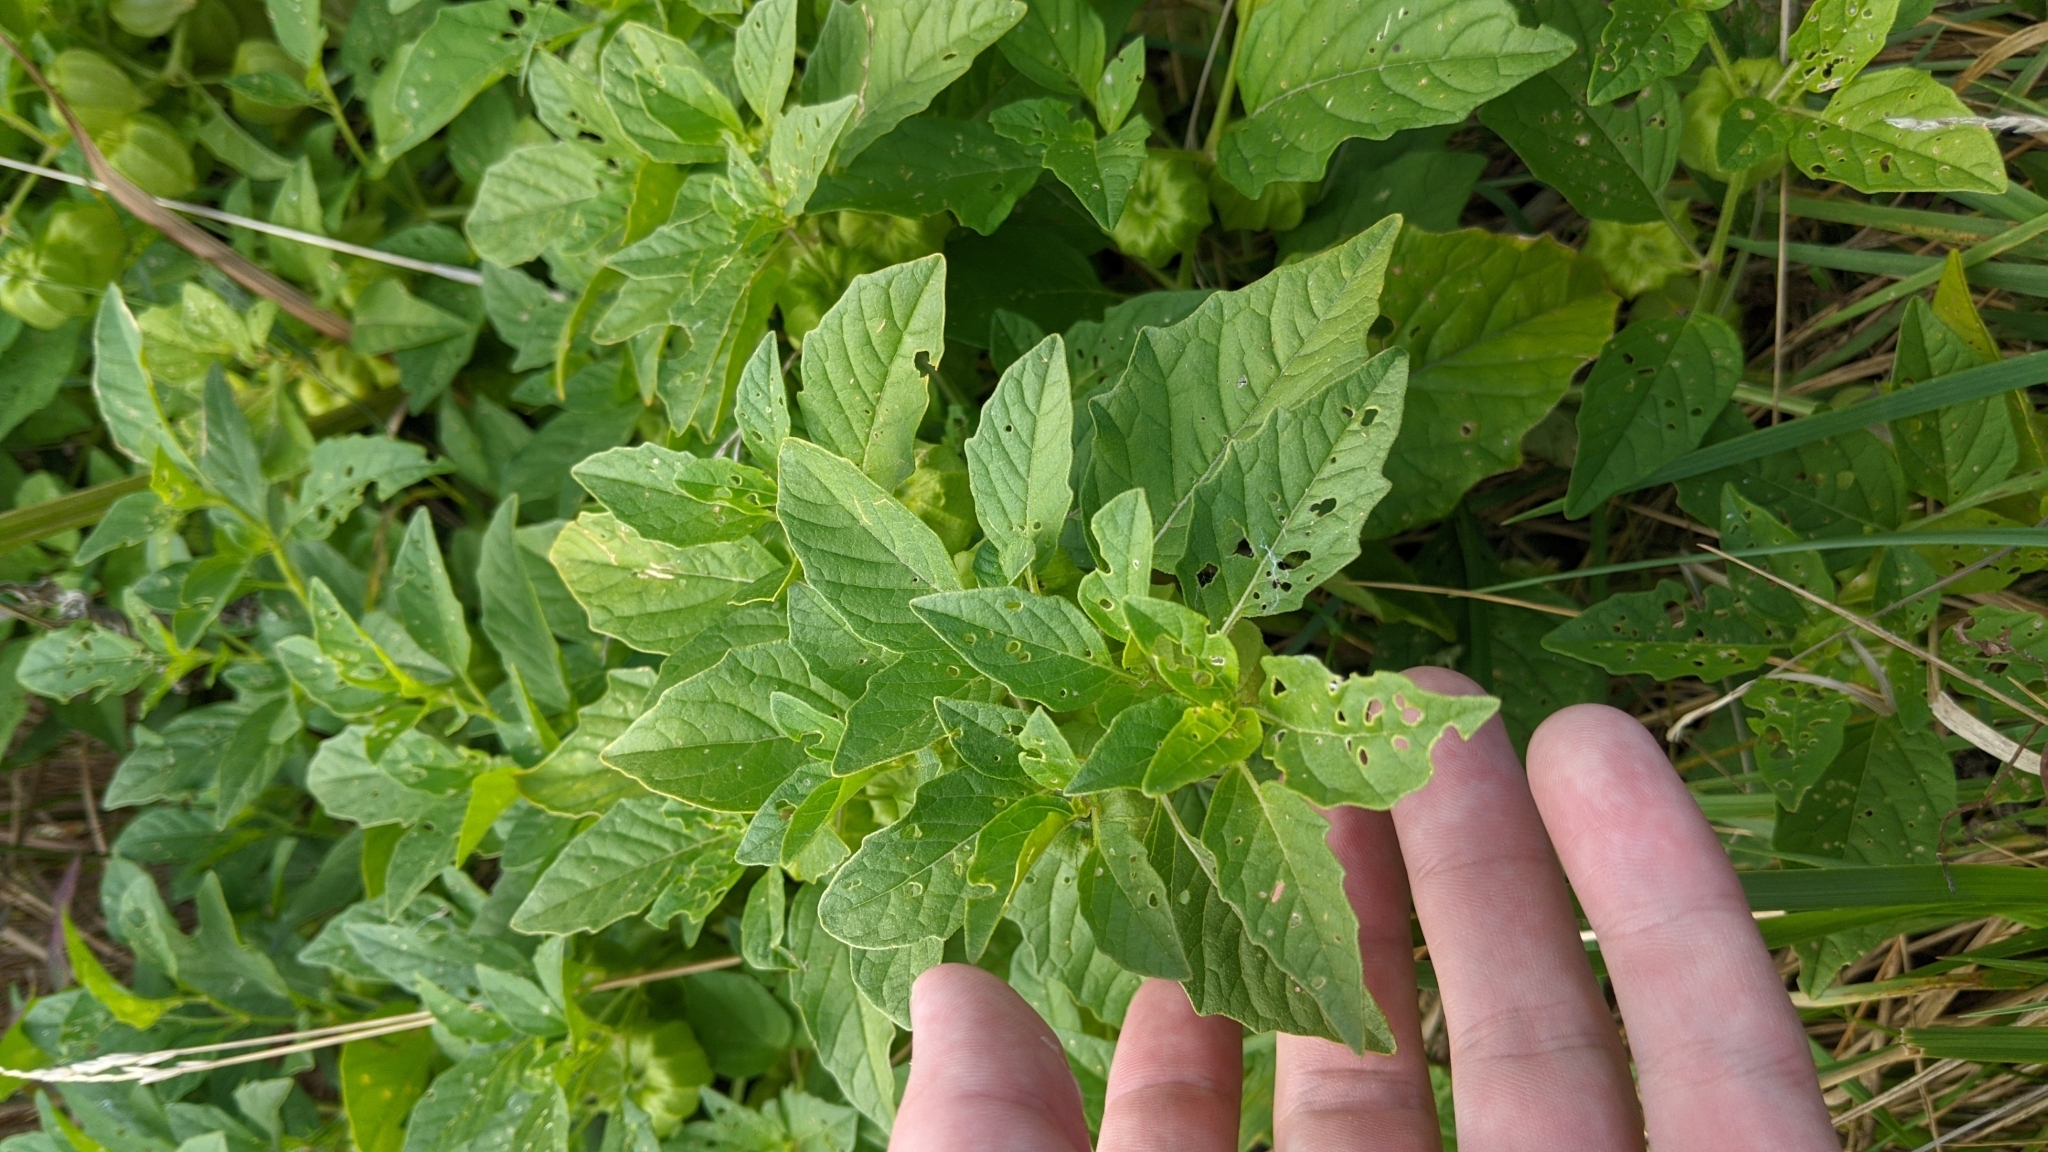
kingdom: Plantae
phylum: Tracheophyta
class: Magnoliopsida
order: Solanales
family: Solanaceae
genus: Physalis
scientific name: Physalis longifolia
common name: Common ground-cherry
